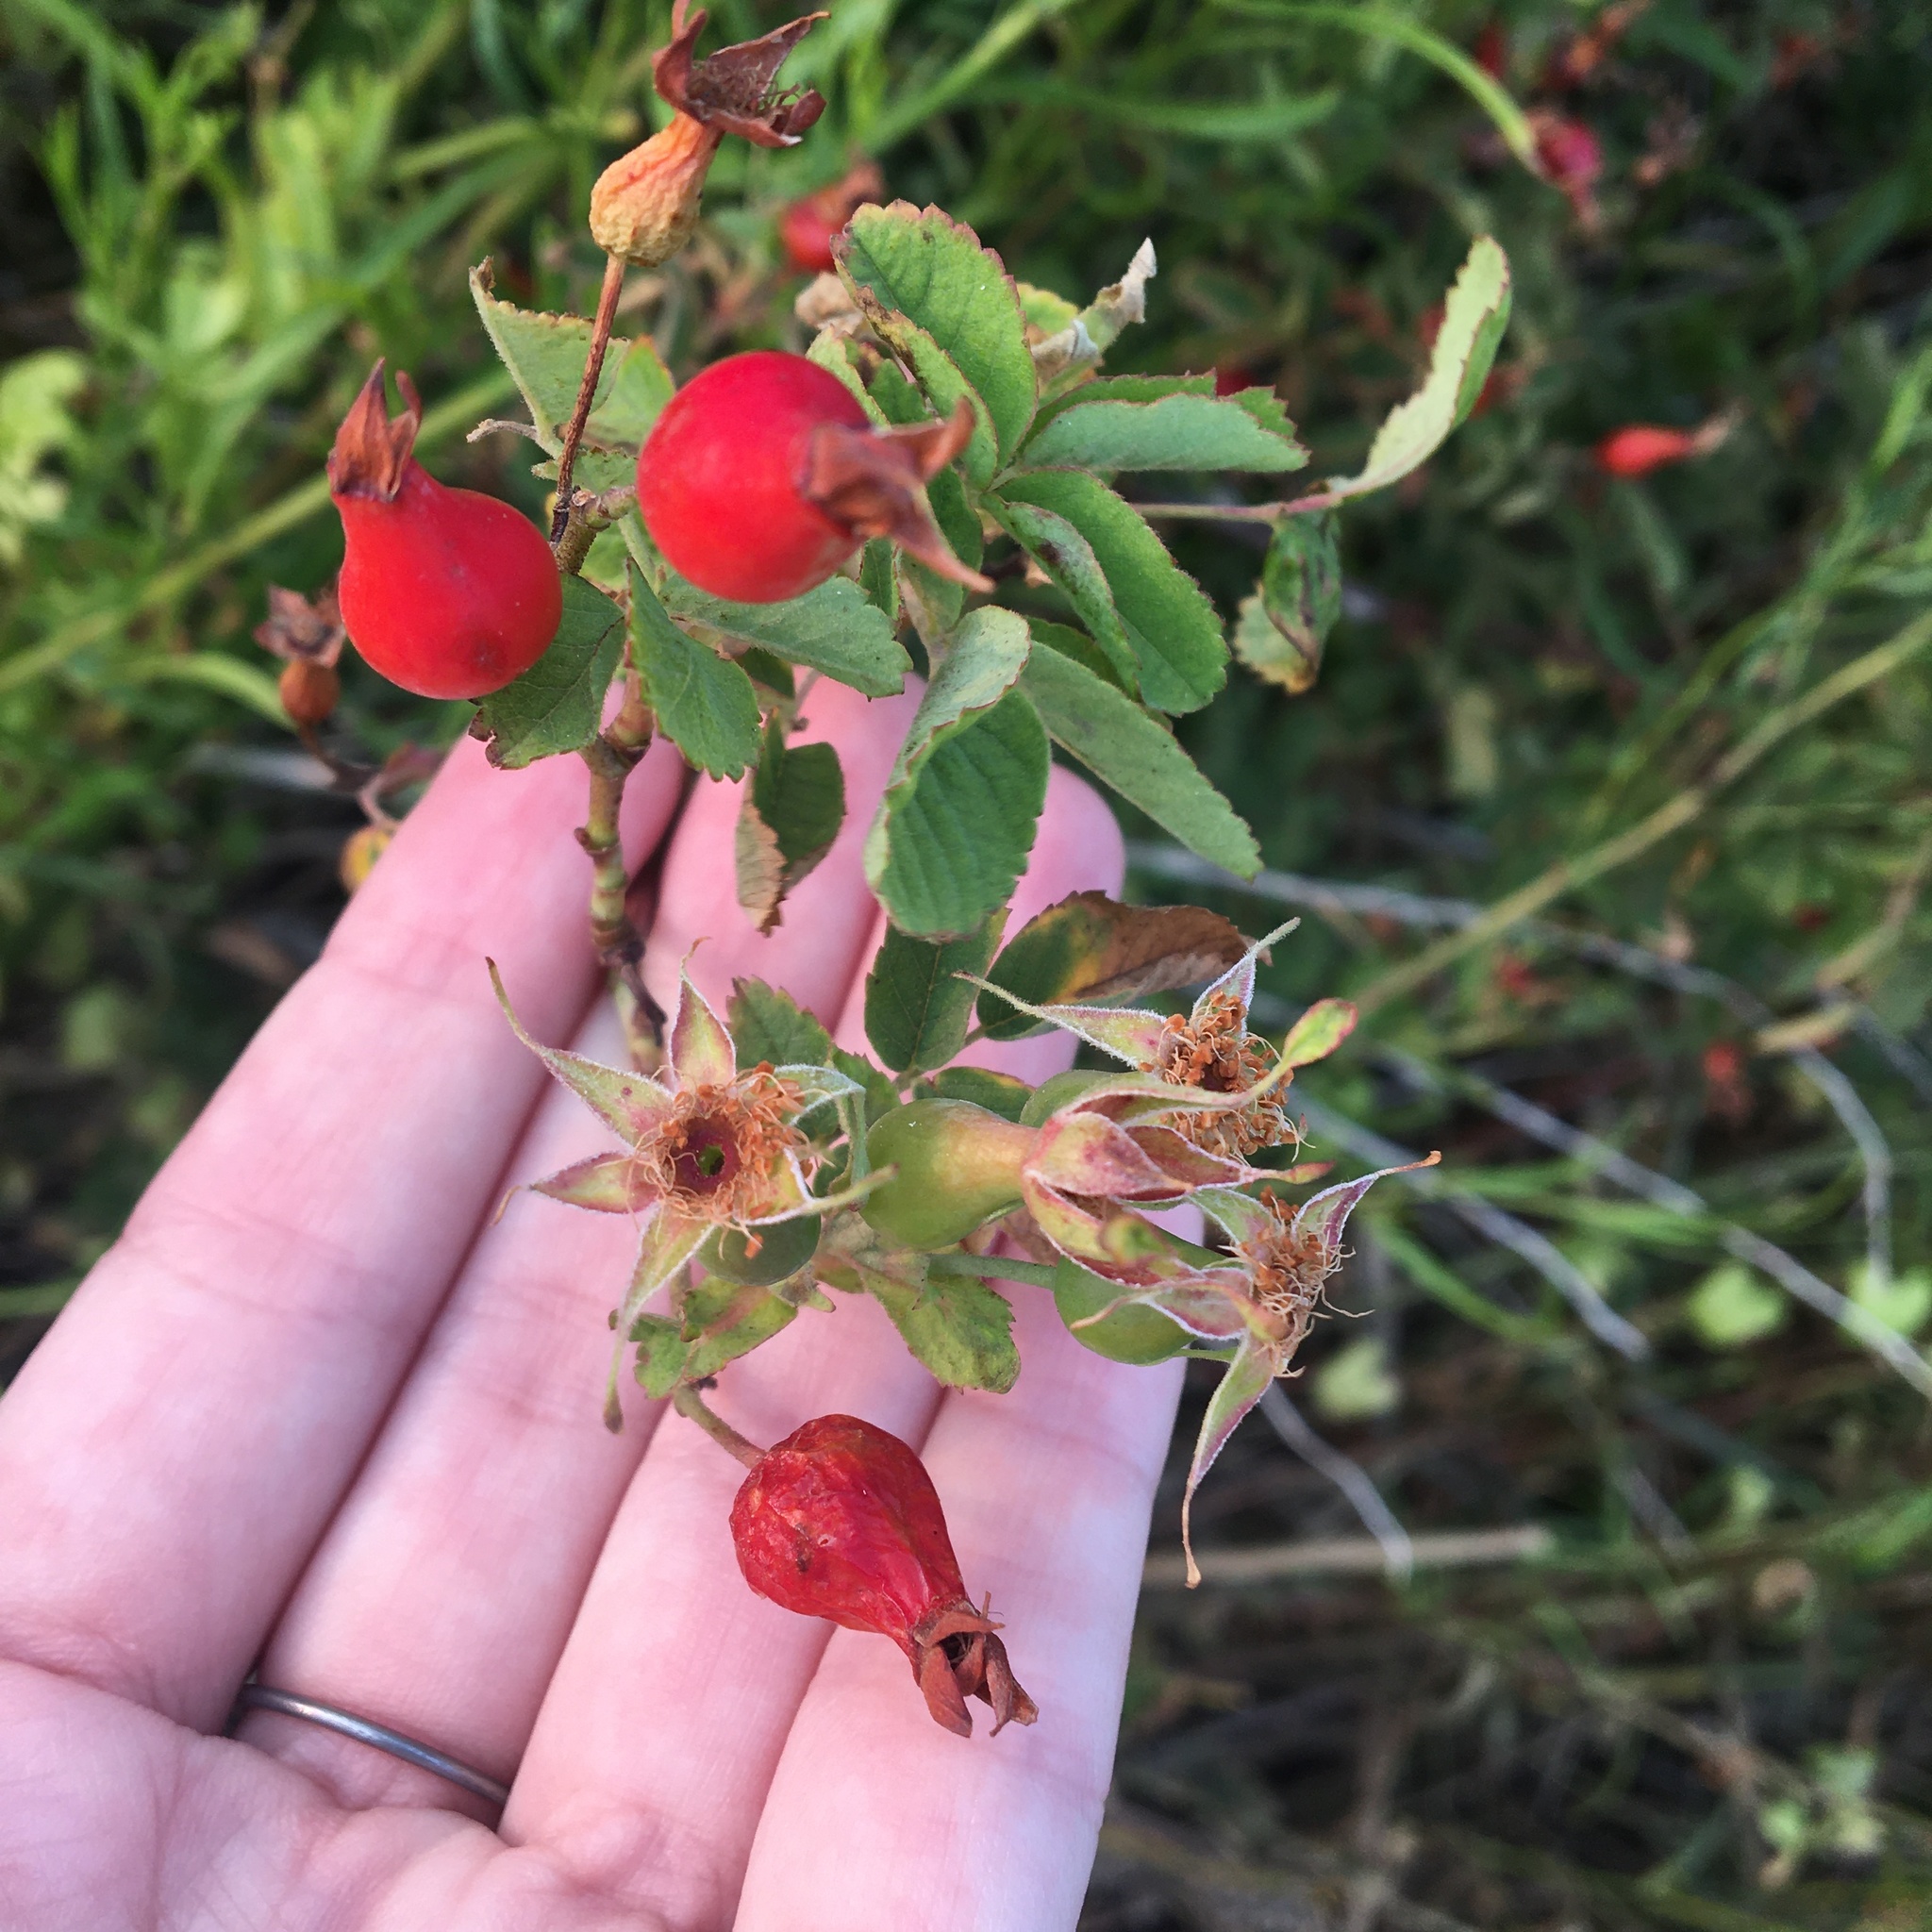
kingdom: Plantae
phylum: Tracheophyta
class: Magnoliopsida
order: Rosales
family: Rosaceae
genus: Rosa
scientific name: Rosa californica
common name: California rose
